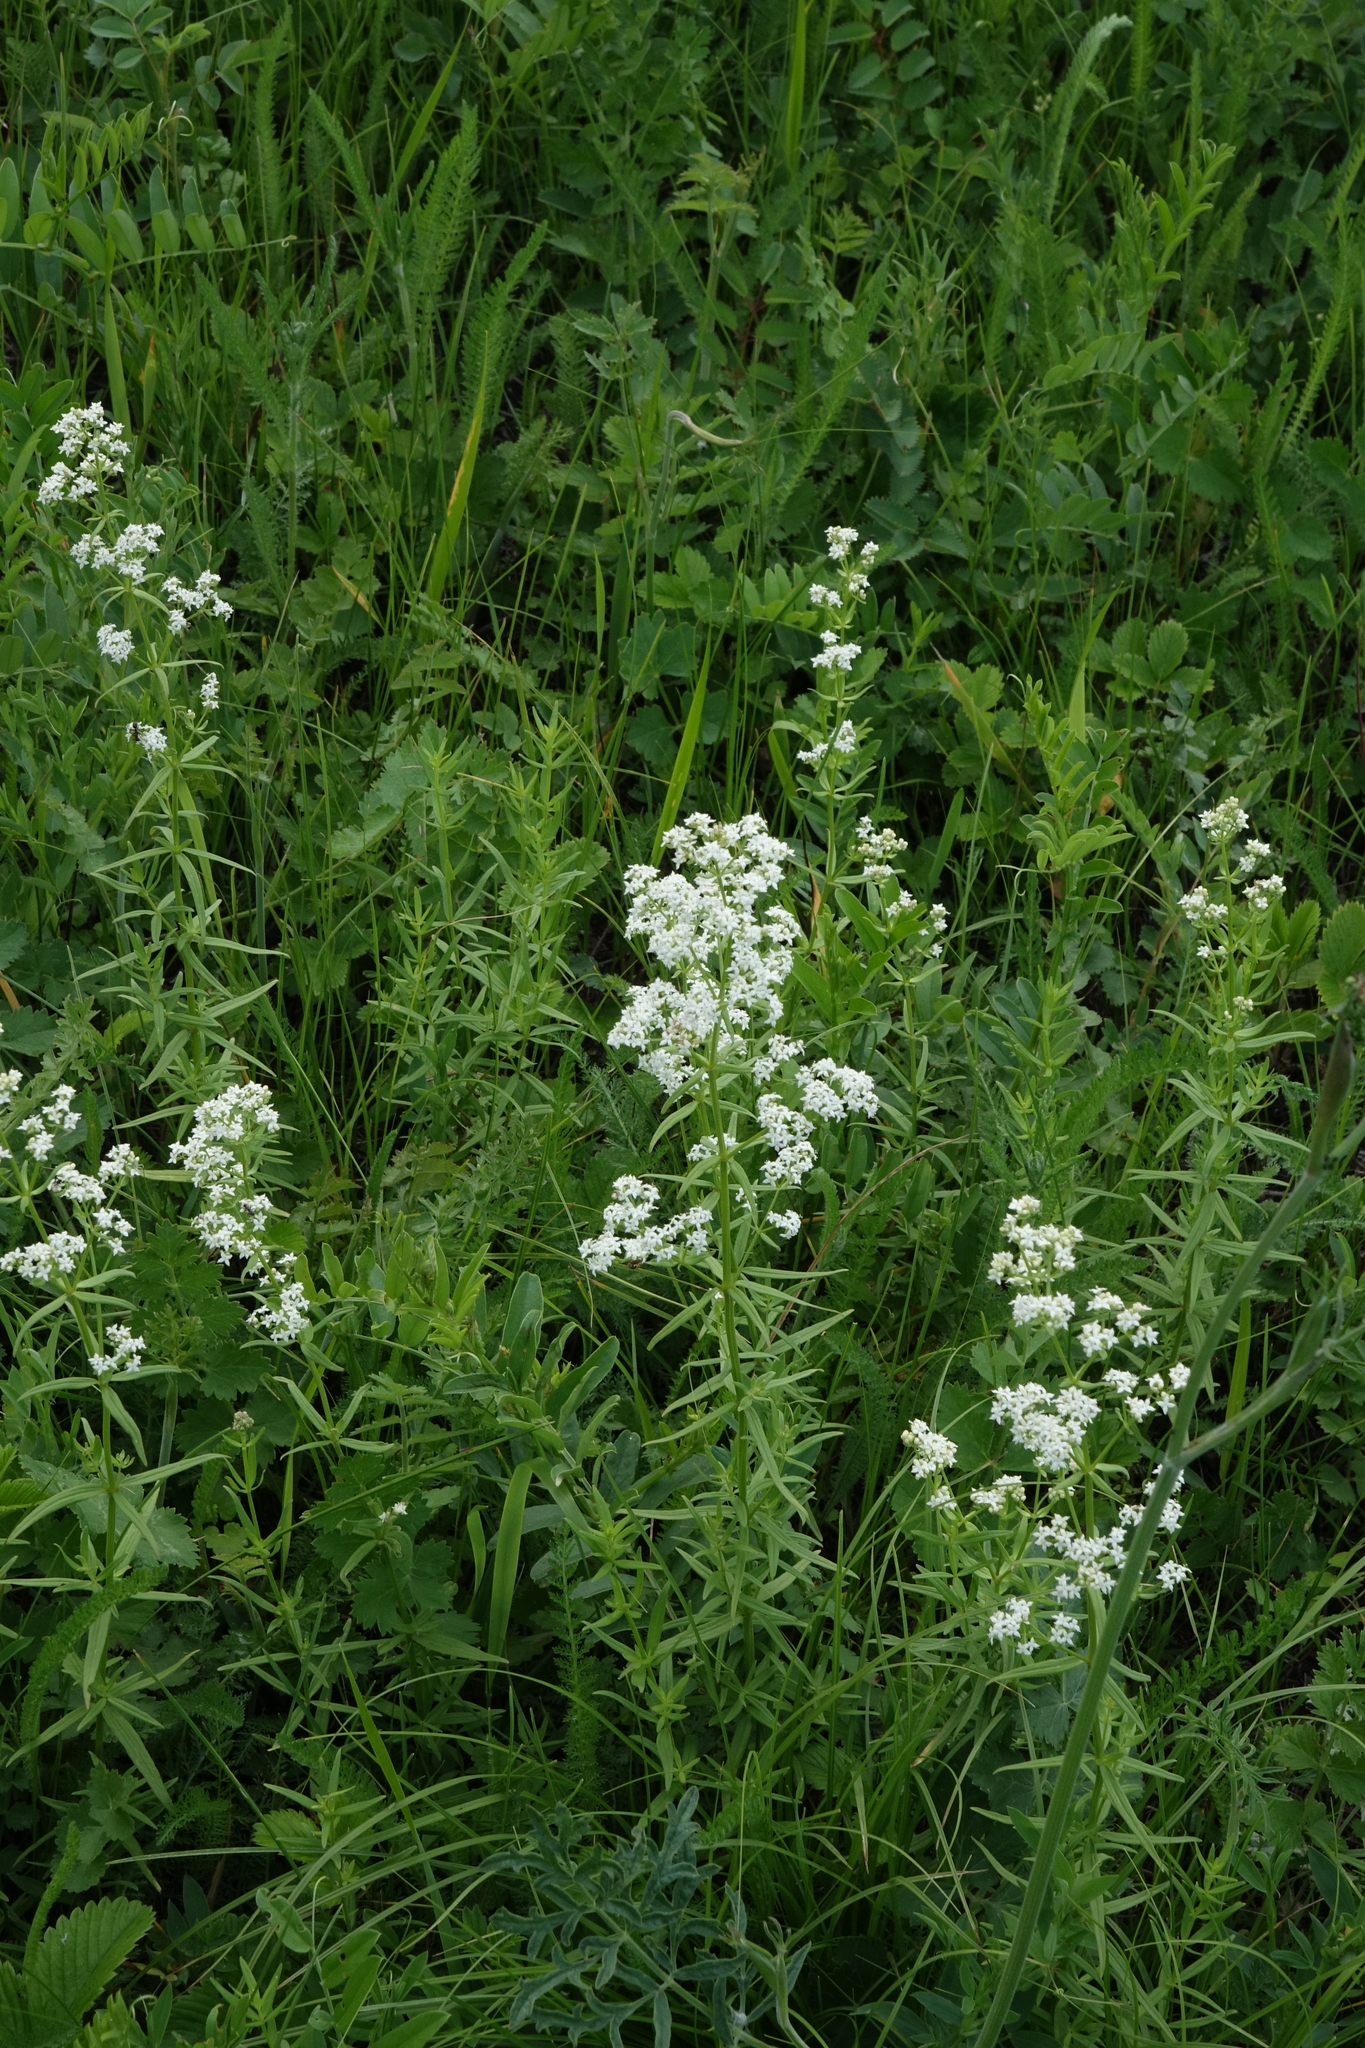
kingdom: Plantae
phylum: Tracheophyta
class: Magnoliopsida
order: Gentianales
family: Rubiaceae
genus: Galium
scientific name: Galium boreale
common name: Northern bedstraw
